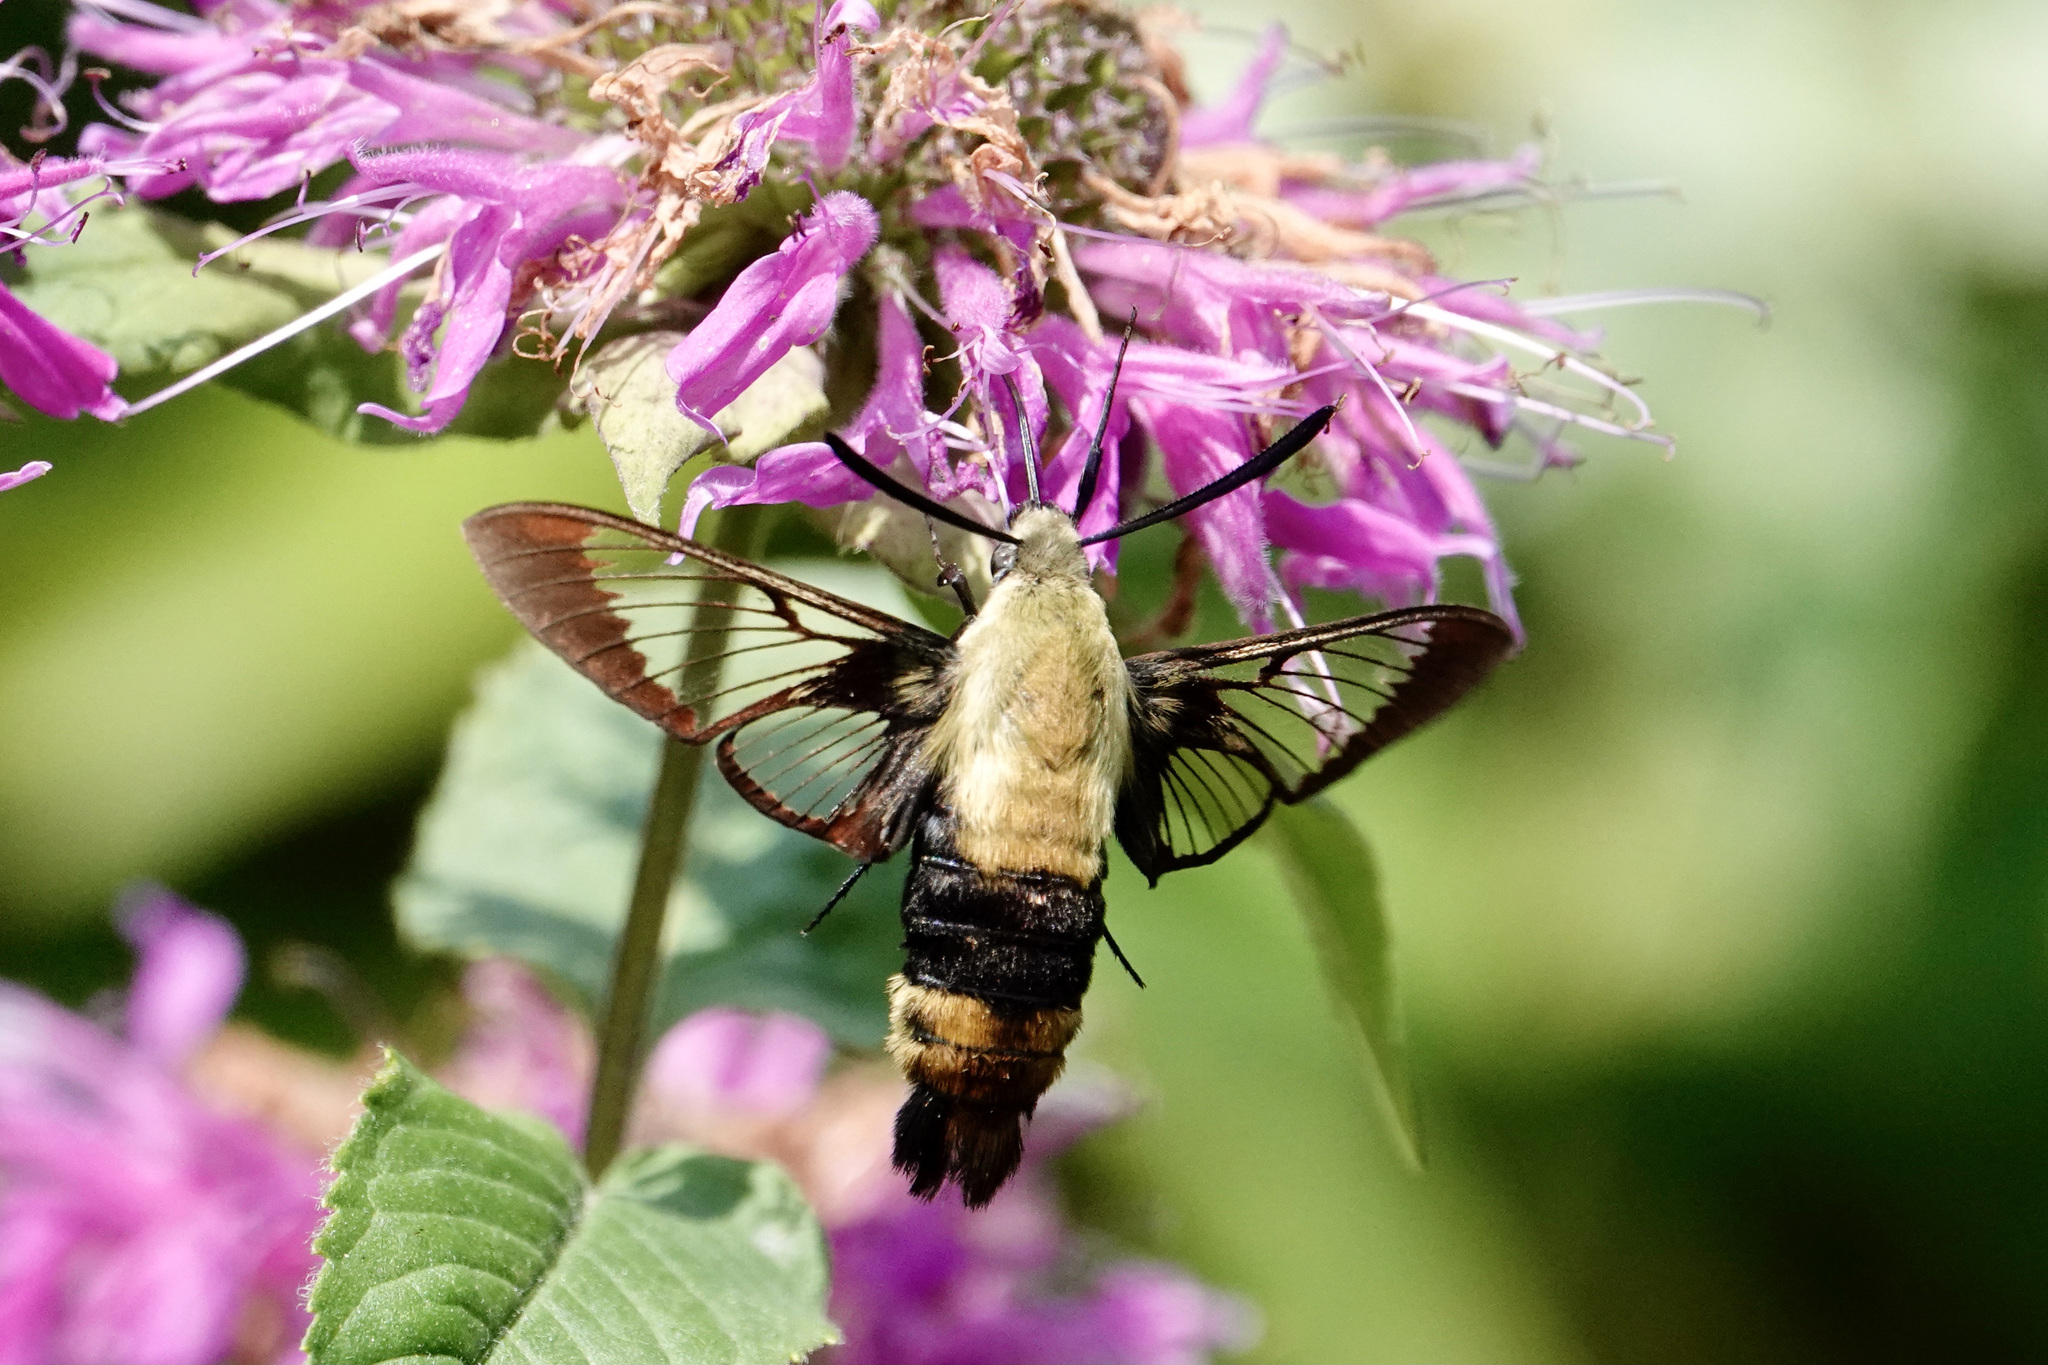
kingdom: Animalia
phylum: Arthropoda
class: Insecta
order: Lepidoptera
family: Sphingidae
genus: Hemaris
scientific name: Hemaris diffinis
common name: Bumblebee moth
